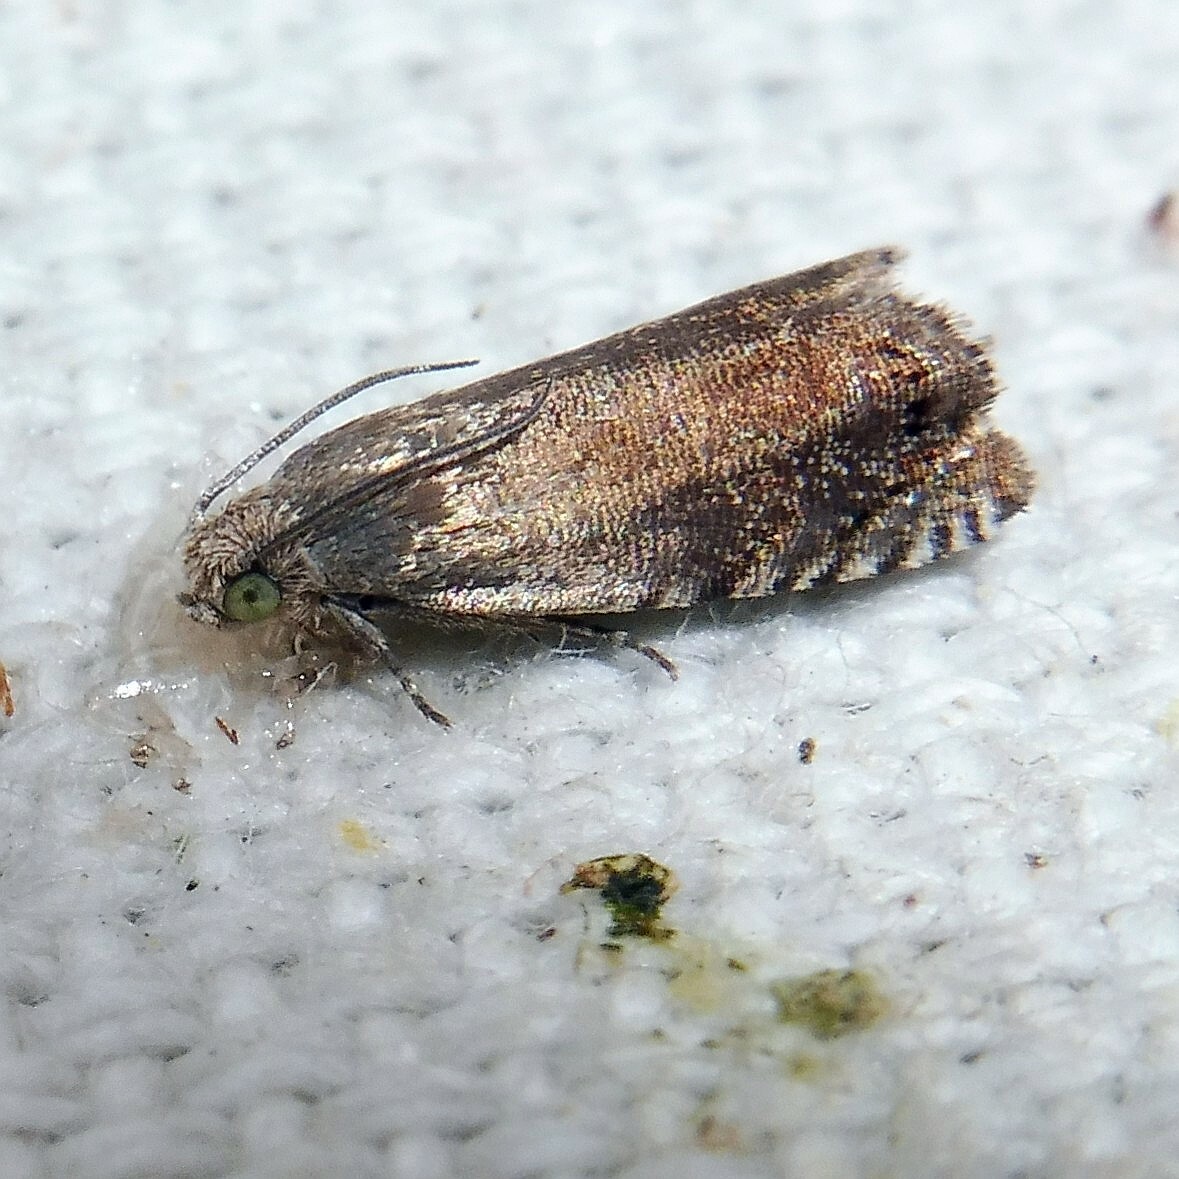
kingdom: Animalia
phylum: Arthropoda
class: Insecta
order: Lepidoptera
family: Tortricidae
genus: Cydia
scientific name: Cydia nigricana
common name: Pea moth
